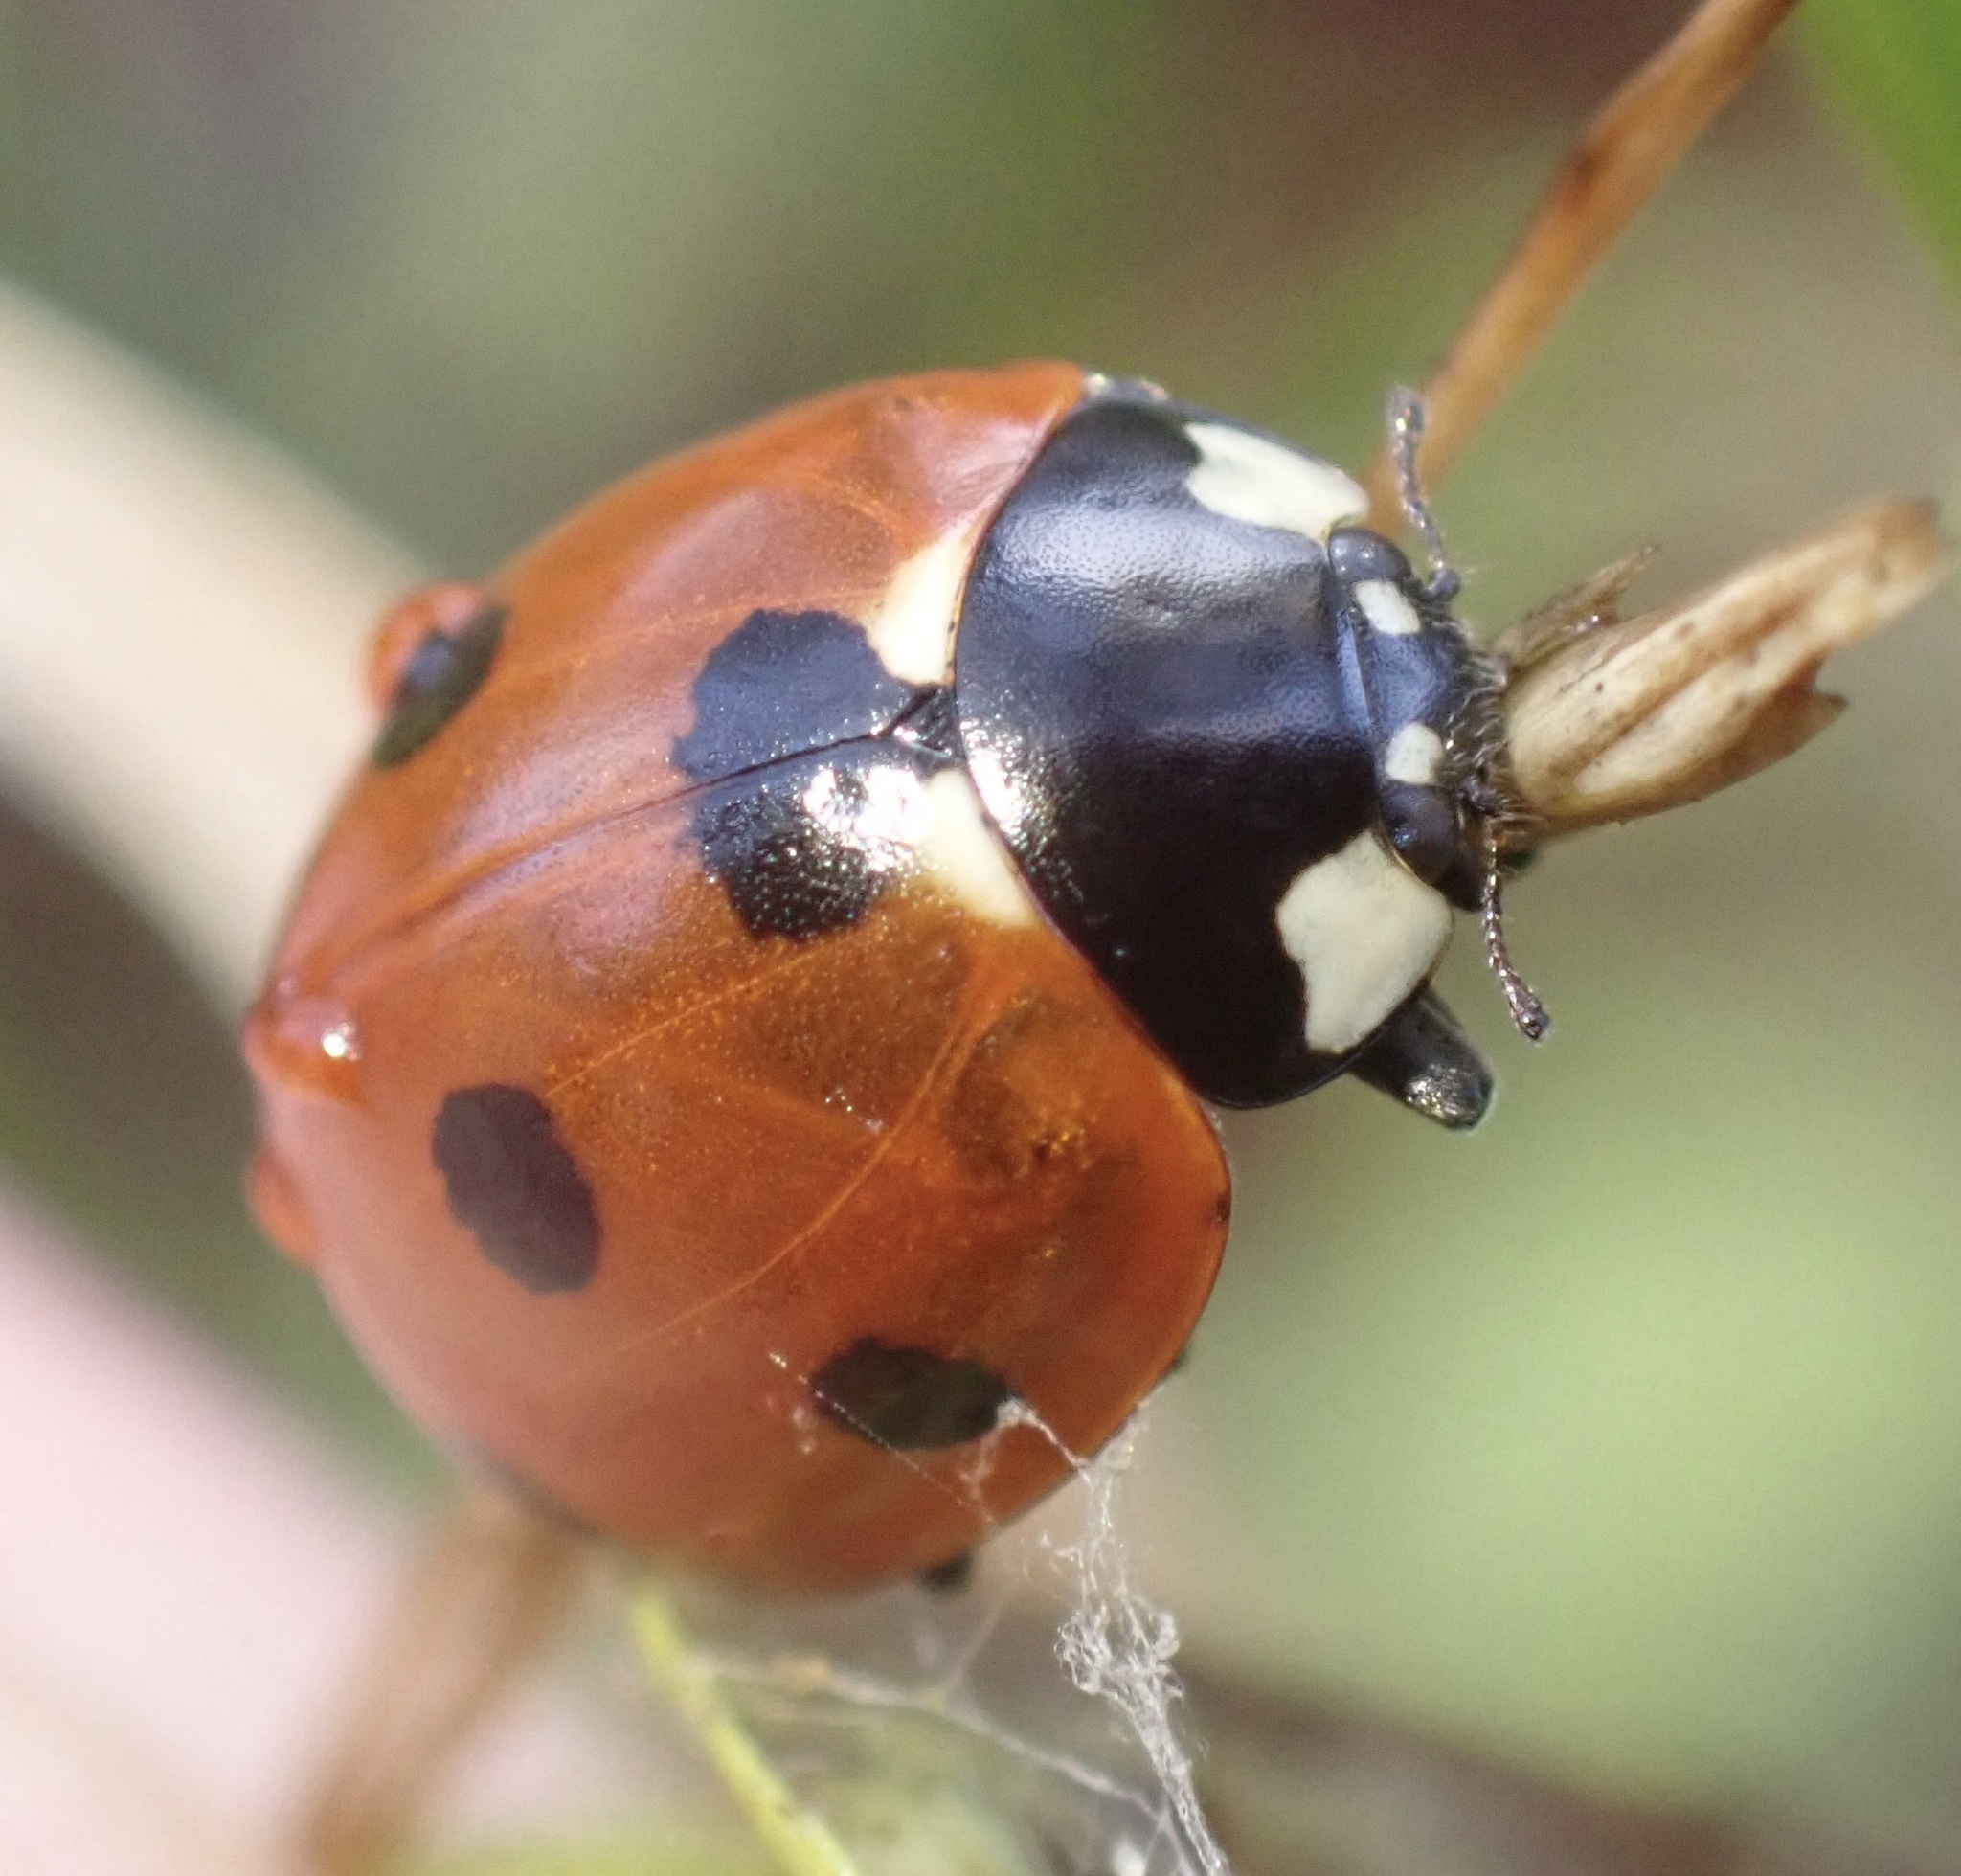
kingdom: Animalia
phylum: Arthropoda
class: Insecta
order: Coleoptera
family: Coccinellidae
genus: Coccinella
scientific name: Coccinella septempunctata
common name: Sevenspotted lady beetle
